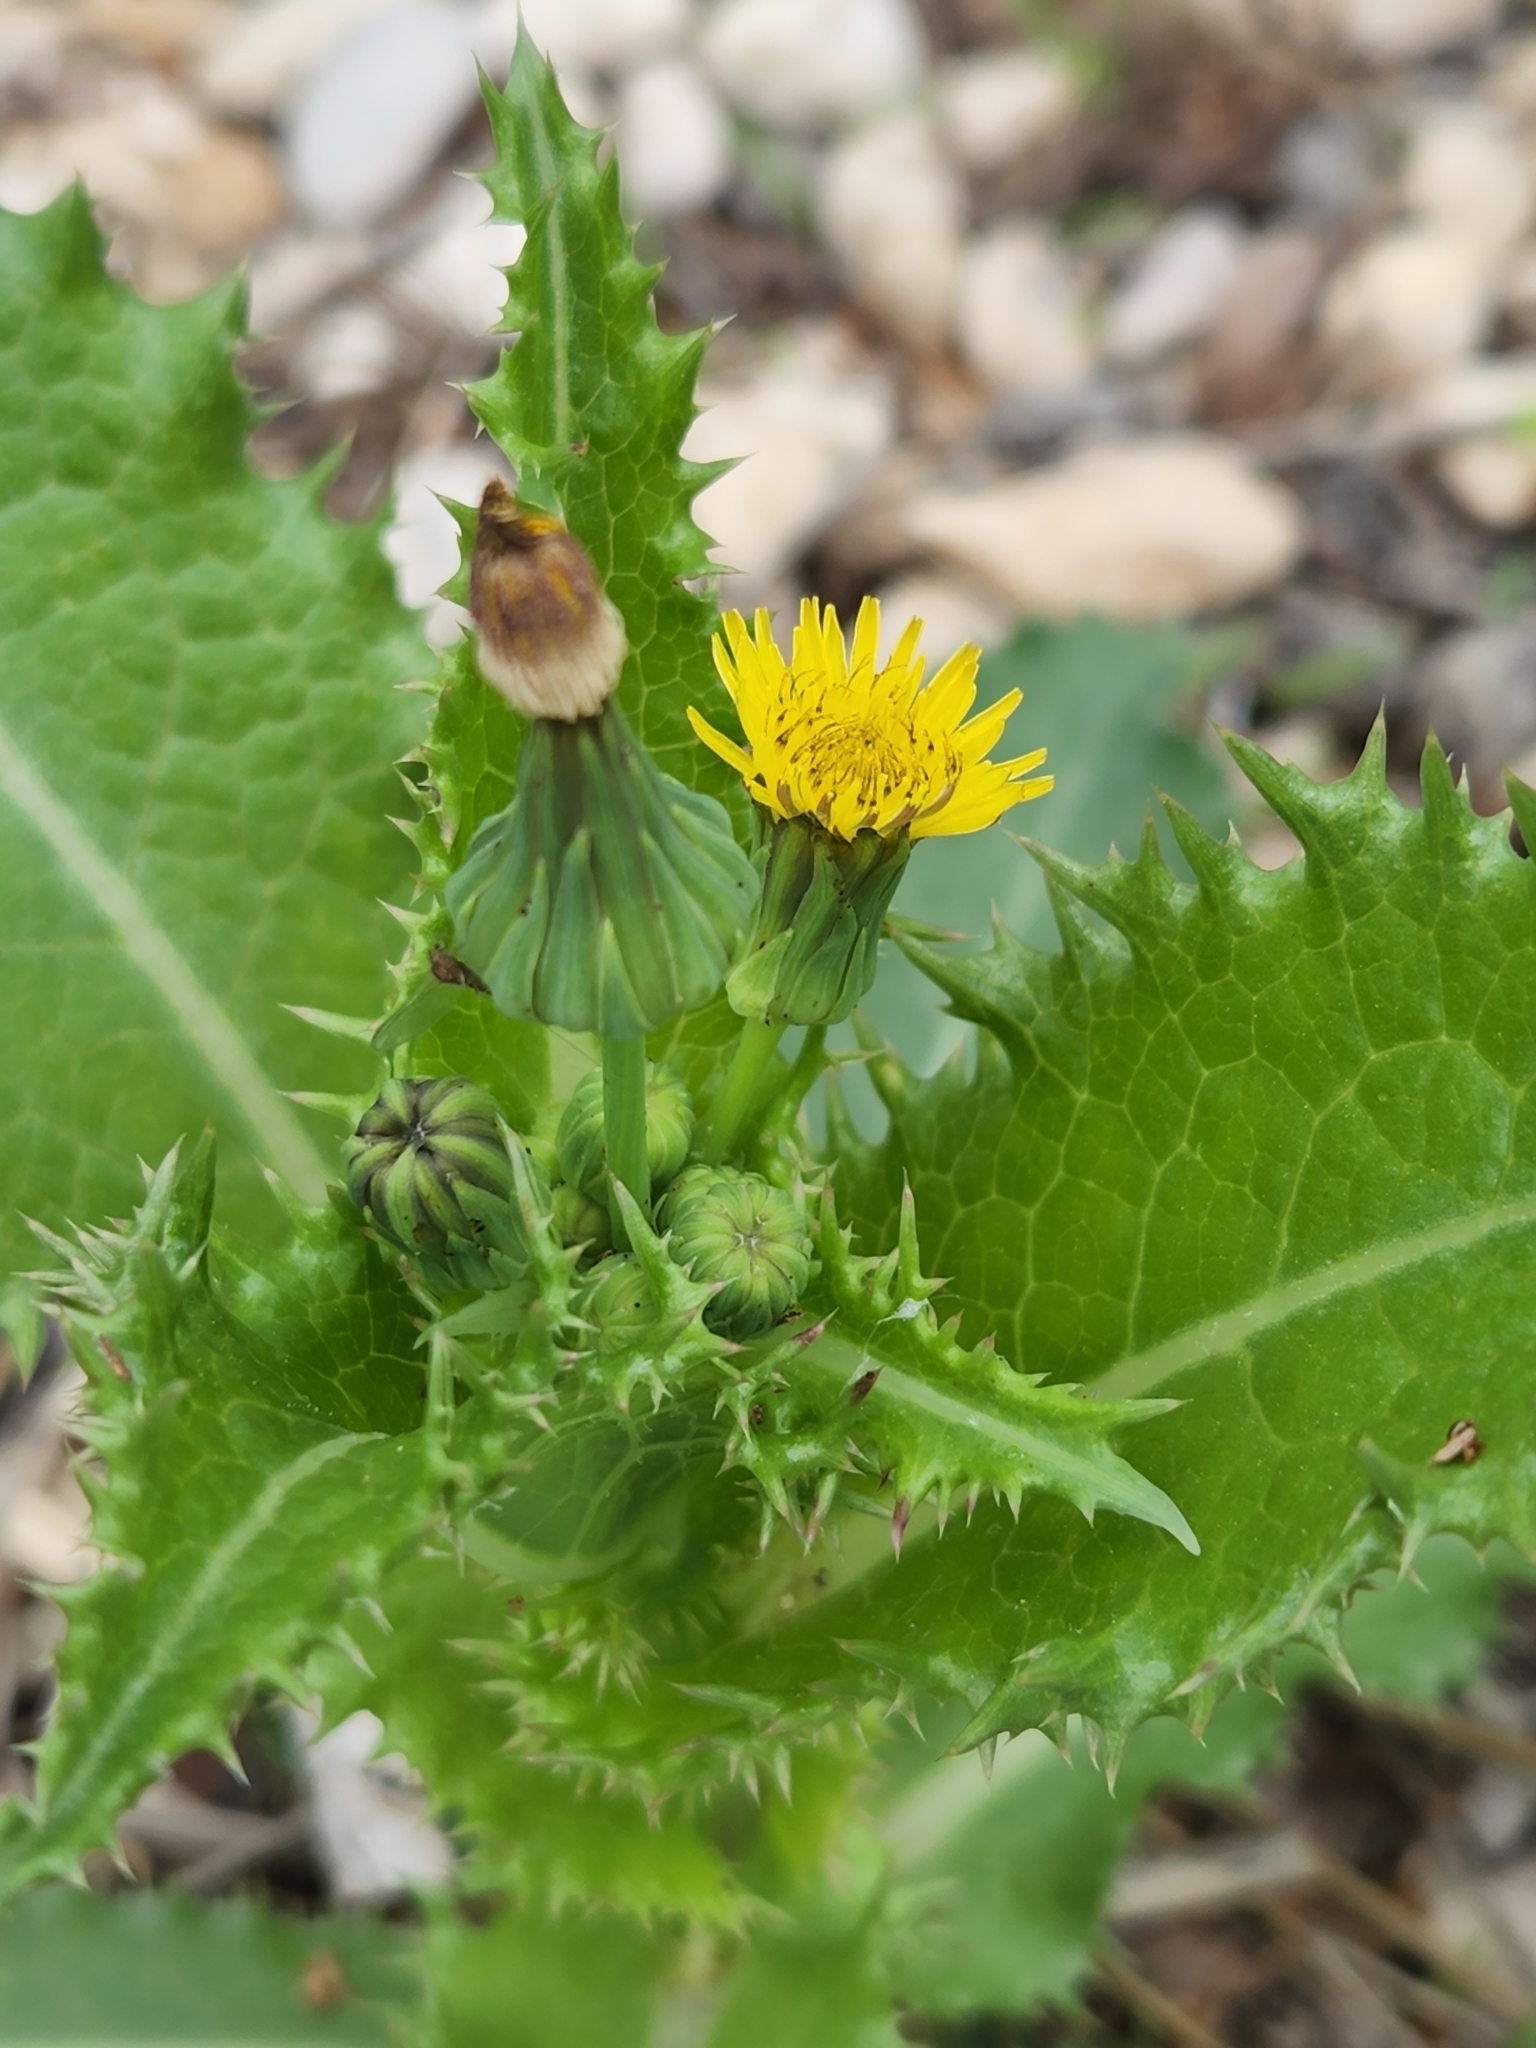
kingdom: Plantae
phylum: Tracheophyta
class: Magnoliopsida
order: Asterales
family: Asteraceae
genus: Sonchus
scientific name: Sonchus asper
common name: Prickly sow-thistle
